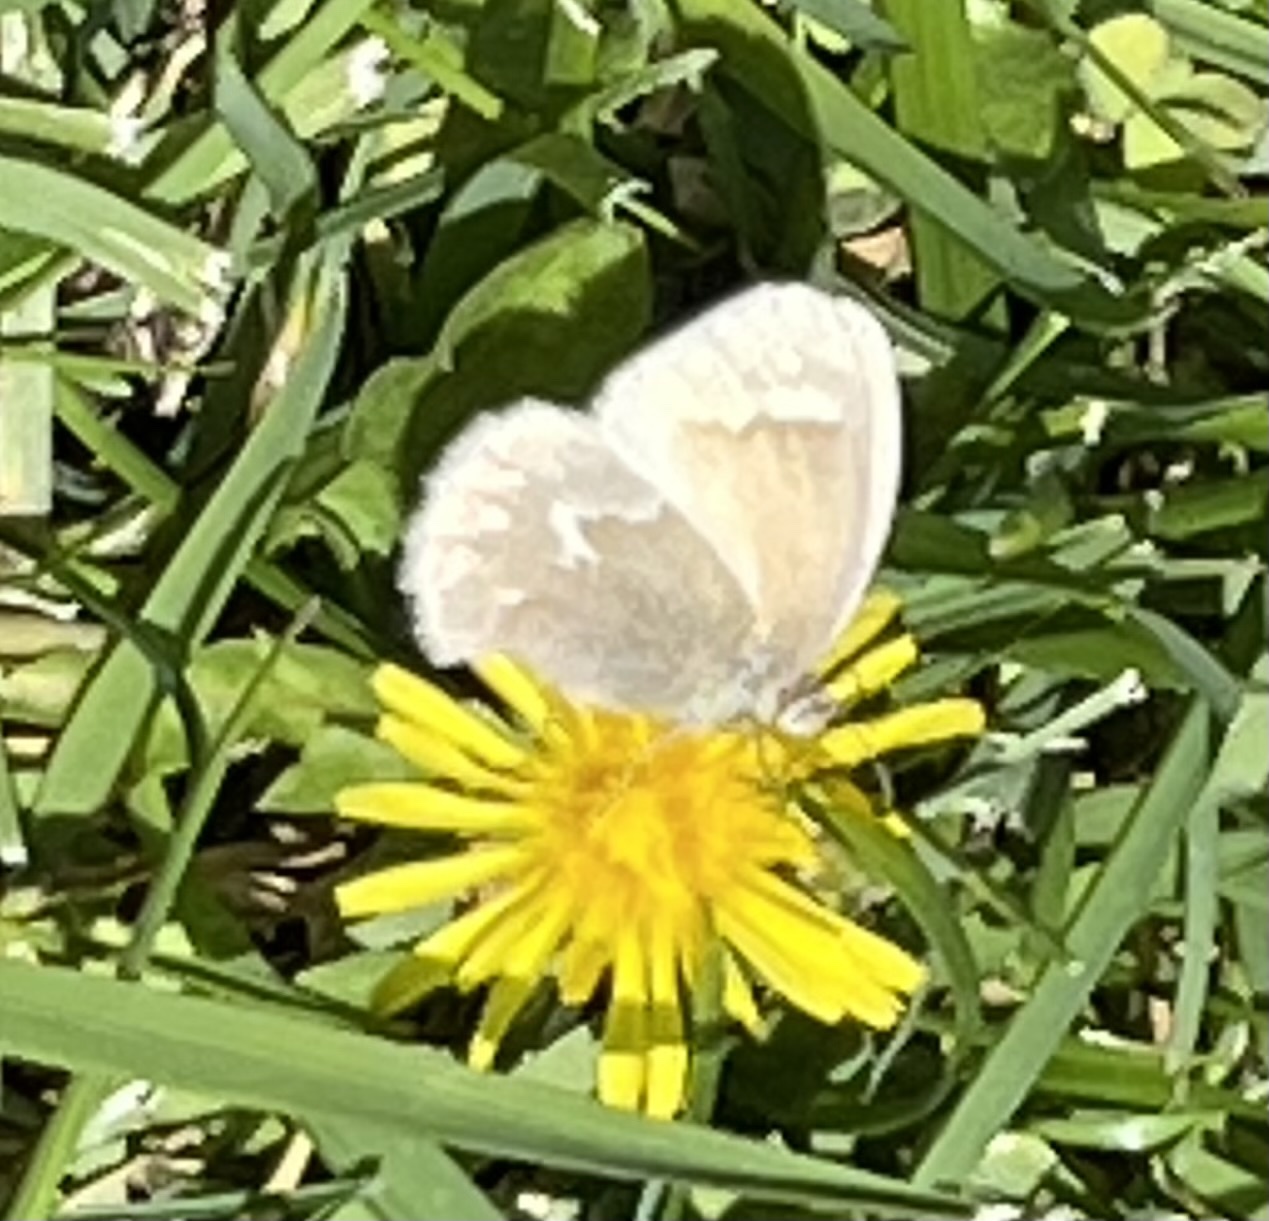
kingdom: Animalia
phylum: Arthropoda
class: Insecta
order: Lepidoptera
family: Nymphalidae
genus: Coenonympha
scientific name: Coenonympha california
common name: Common ringlet
